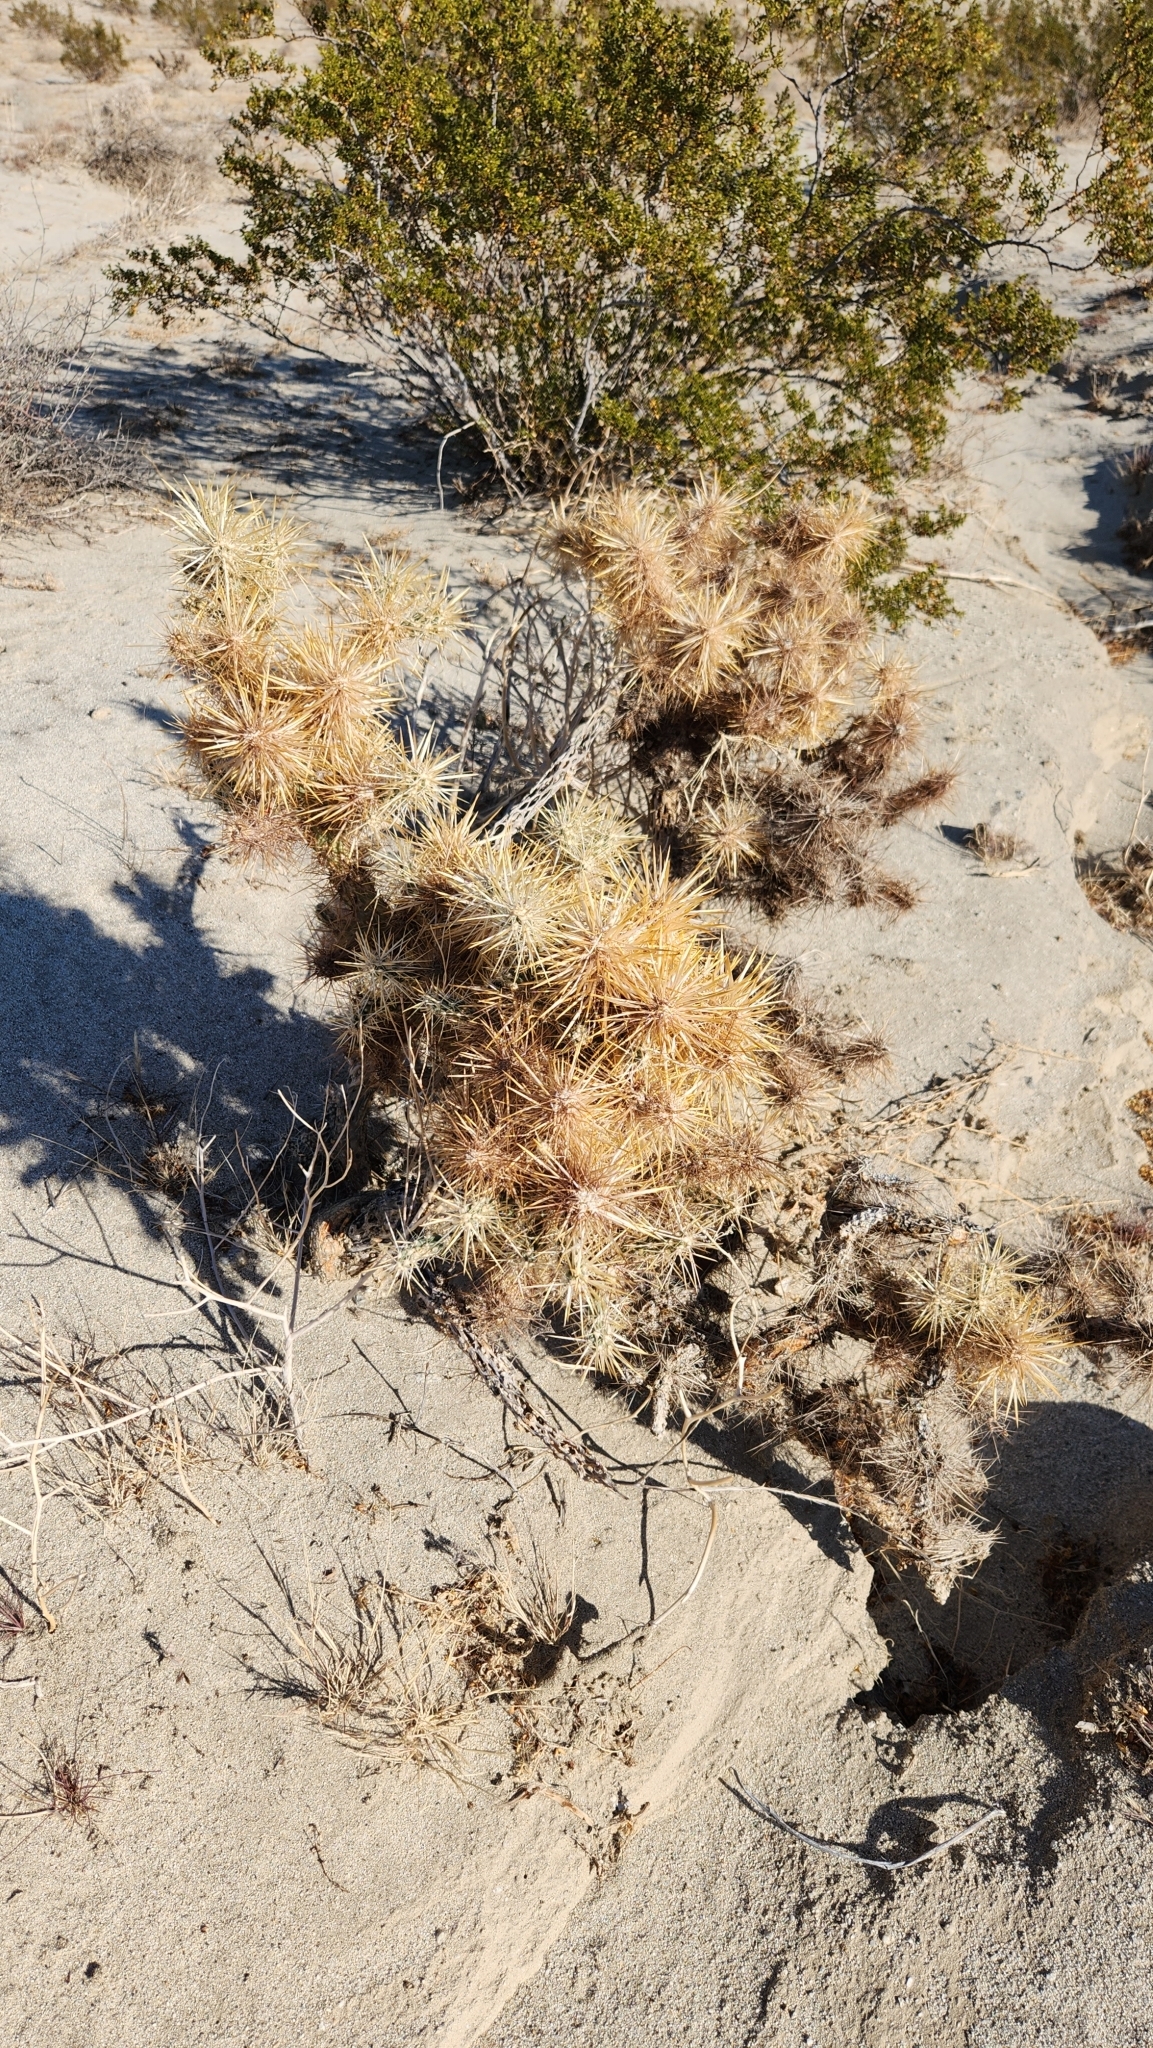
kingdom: Plantae
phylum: Tracheophyta
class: Magnoliopsida
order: Caryophyllales
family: Cactaceae
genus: Cylindropuntia
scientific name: Cylindropuntia echinocarpa
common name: Ground cholla
